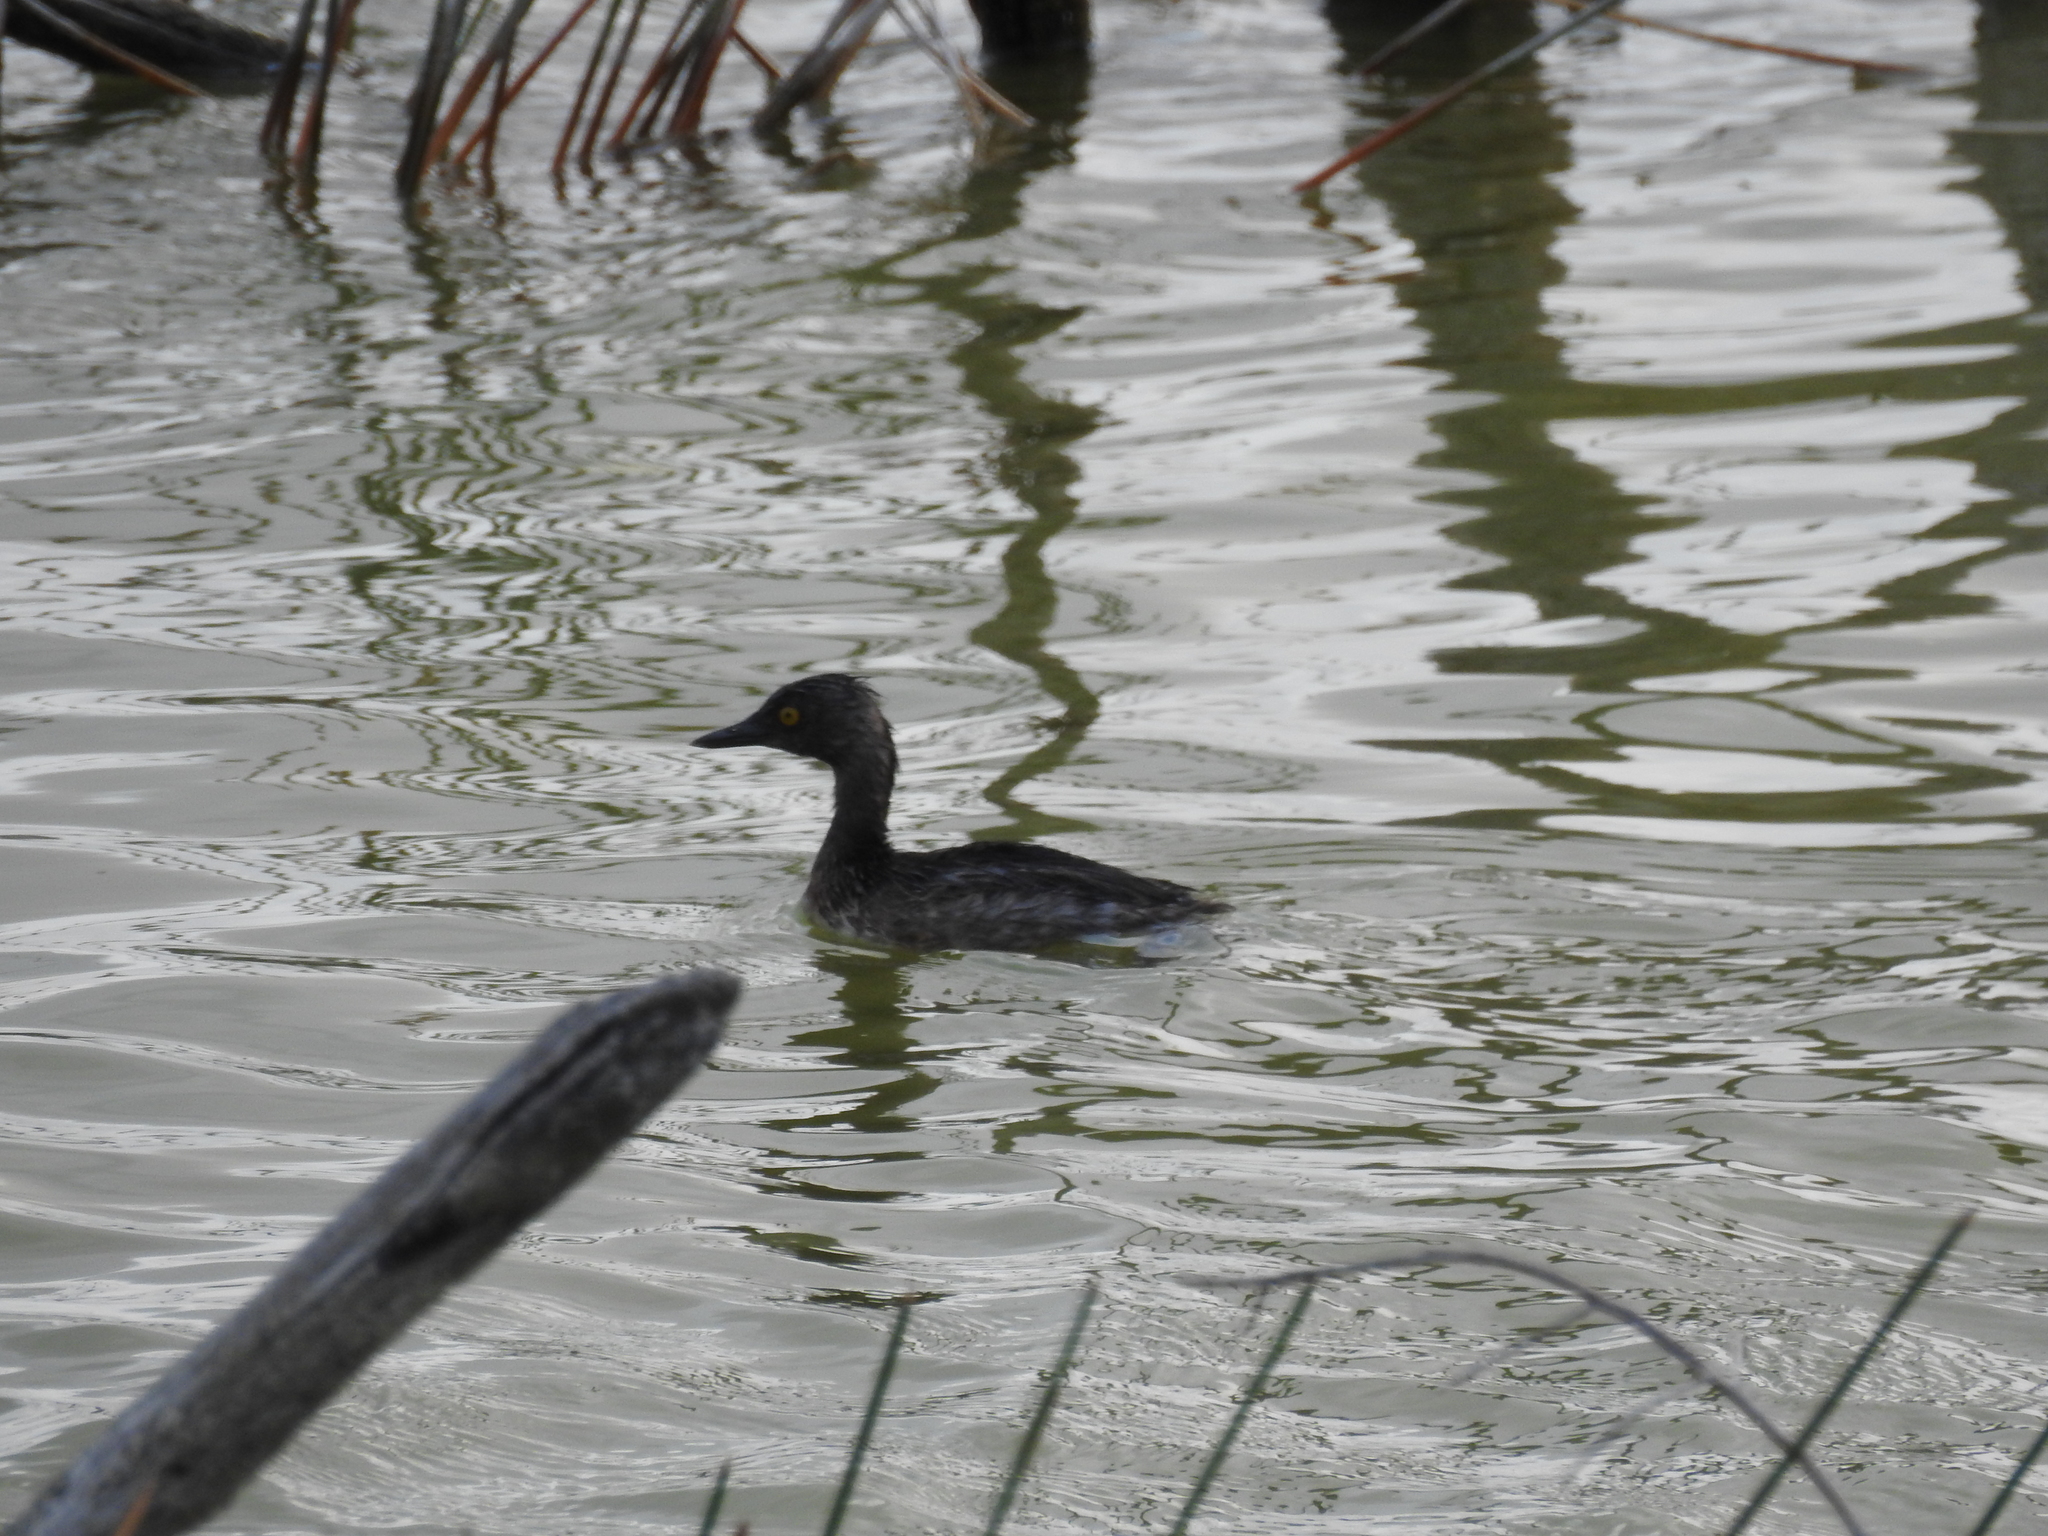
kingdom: Animalia
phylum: Chordata
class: Aves
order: Podicipediformes
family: Podicipedidae
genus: Tachybaptus
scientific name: Tachybaptus dominicus
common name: Least grebe
